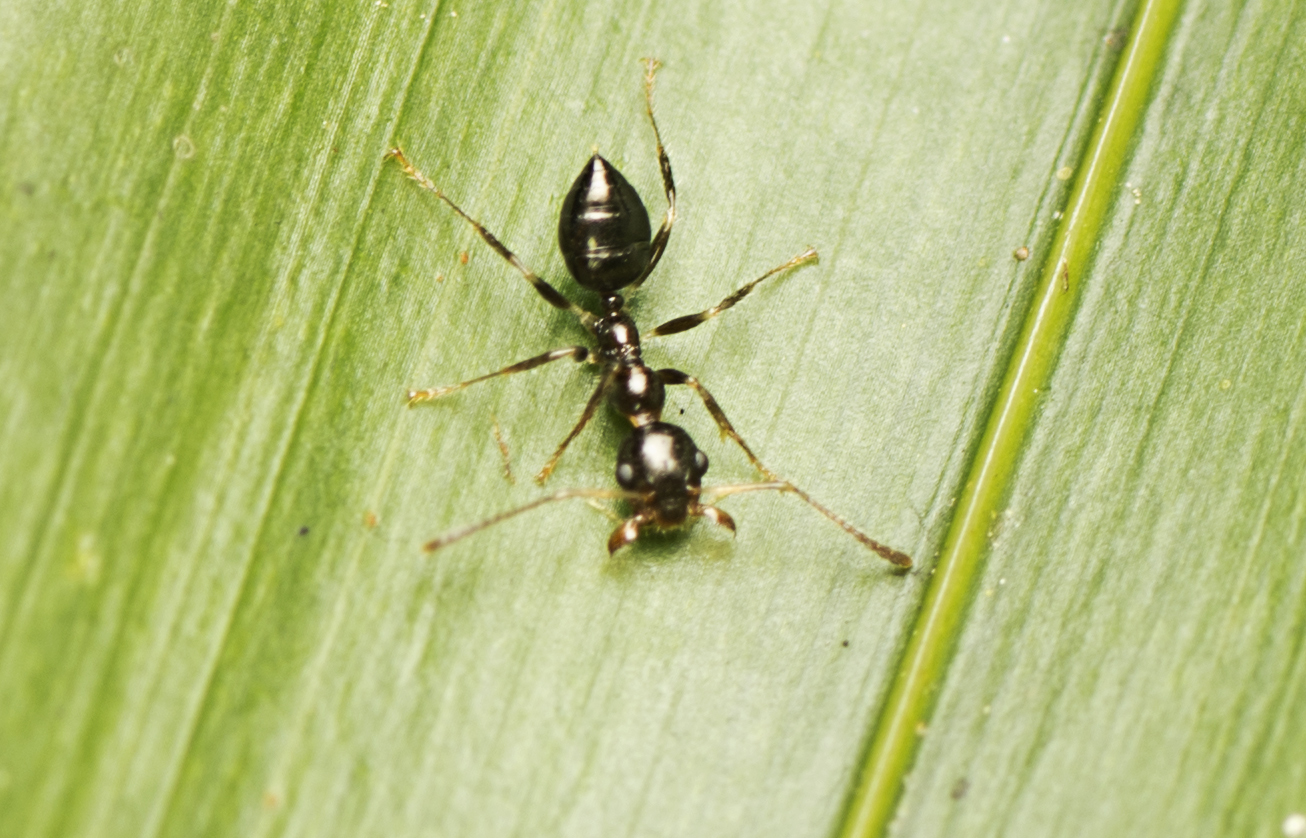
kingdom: Animalia
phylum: Arthropoda
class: Insecta
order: Hymenoptera
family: Formicidae
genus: Myrmecorhynchus
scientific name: Myrmecorhynchus emeryi
